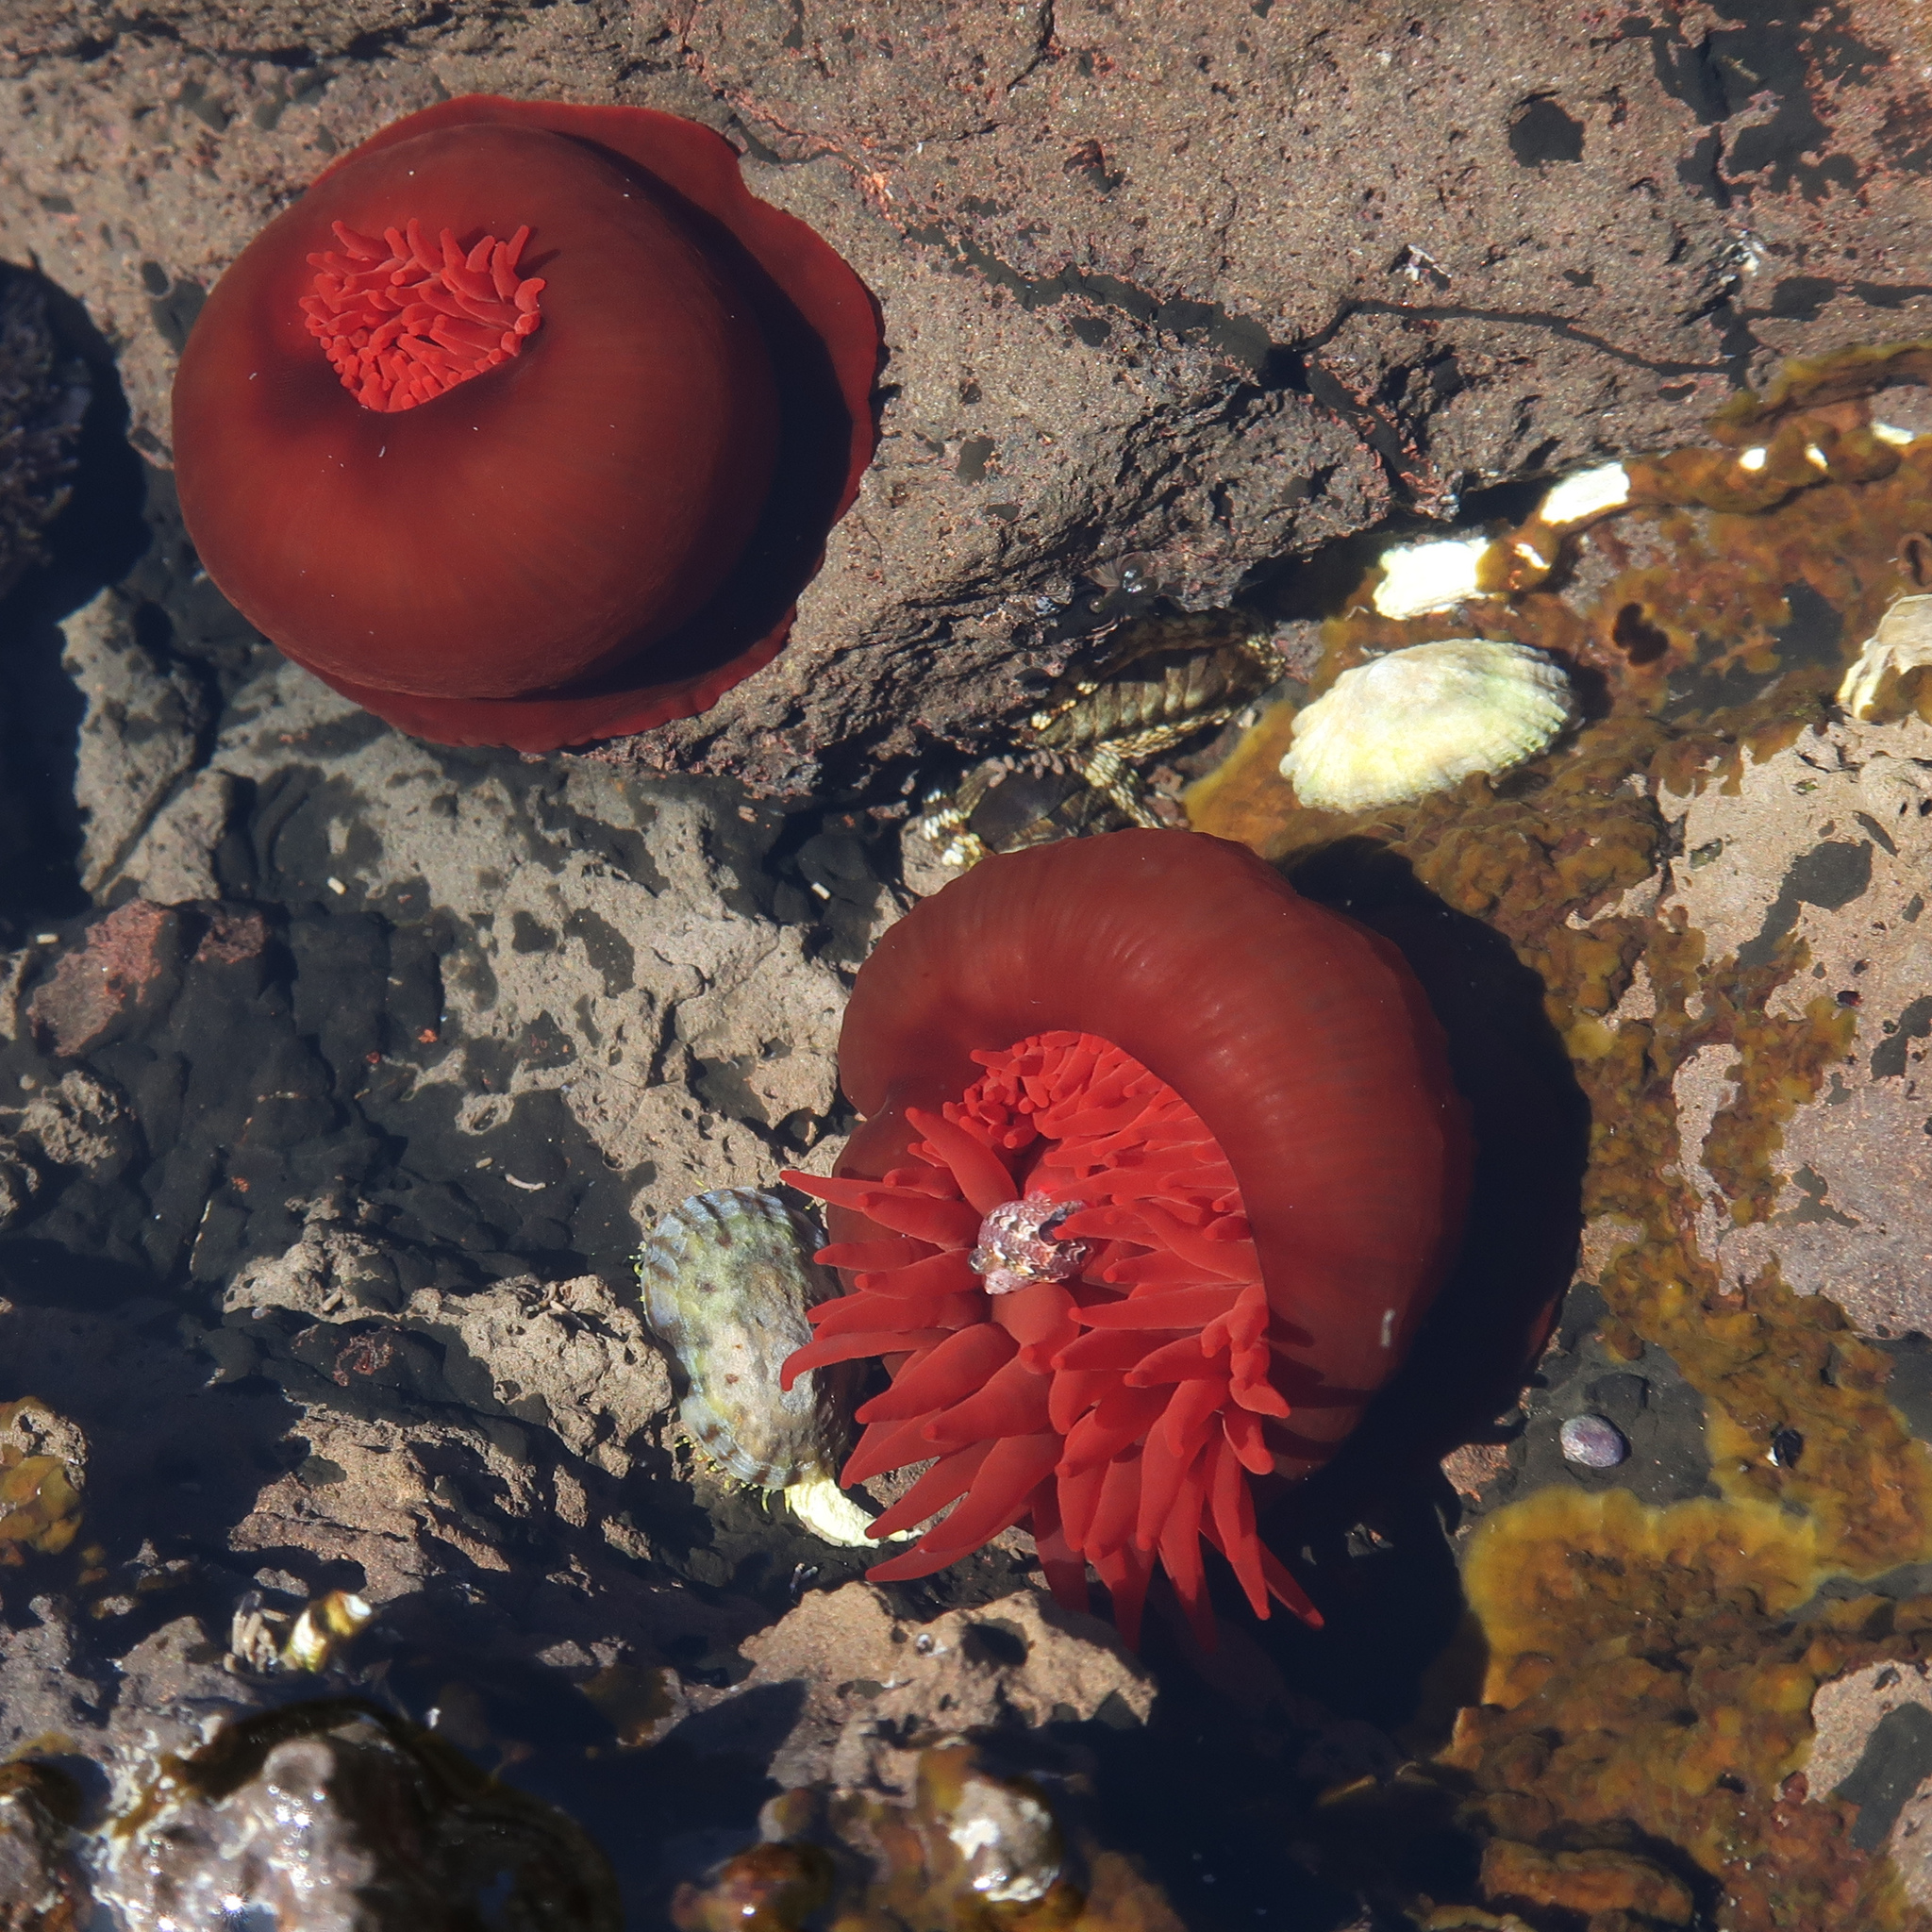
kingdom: Animalia
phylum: Cnidaria
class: Anthozoa
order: Actiniaria
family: Actiniidae
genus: Actinia
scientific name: Actinia tenebrosa
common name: Waratah anemone
